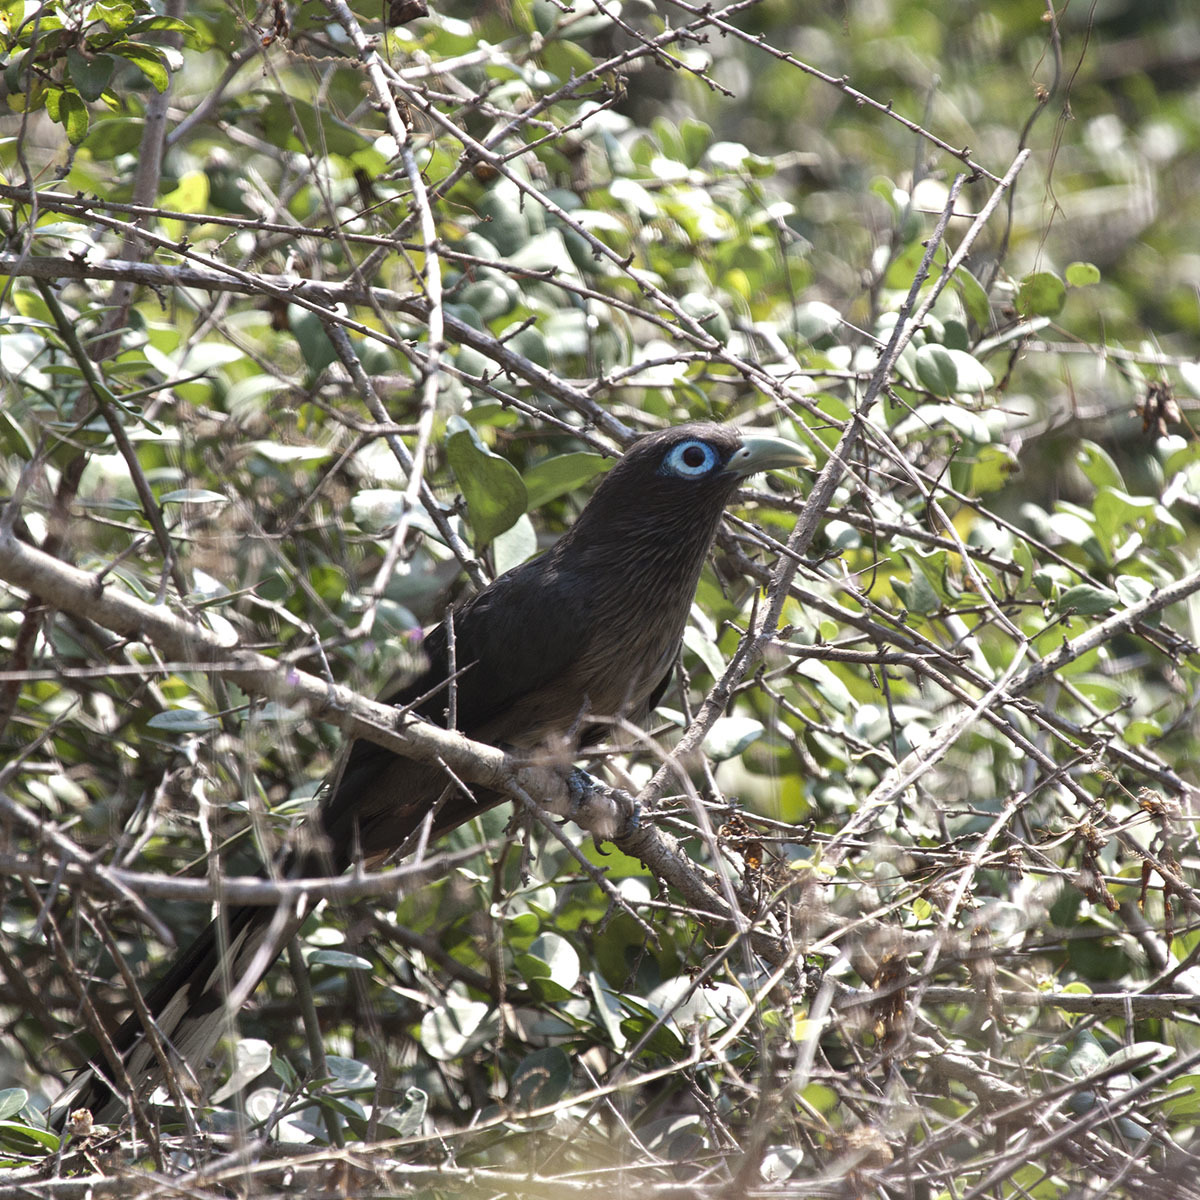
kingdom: Animalia
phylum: Chordata
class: Aves
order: Cuculiformes
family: Cuculidae
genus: Rhopodytes
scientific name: Rhopodytes viridirostris
